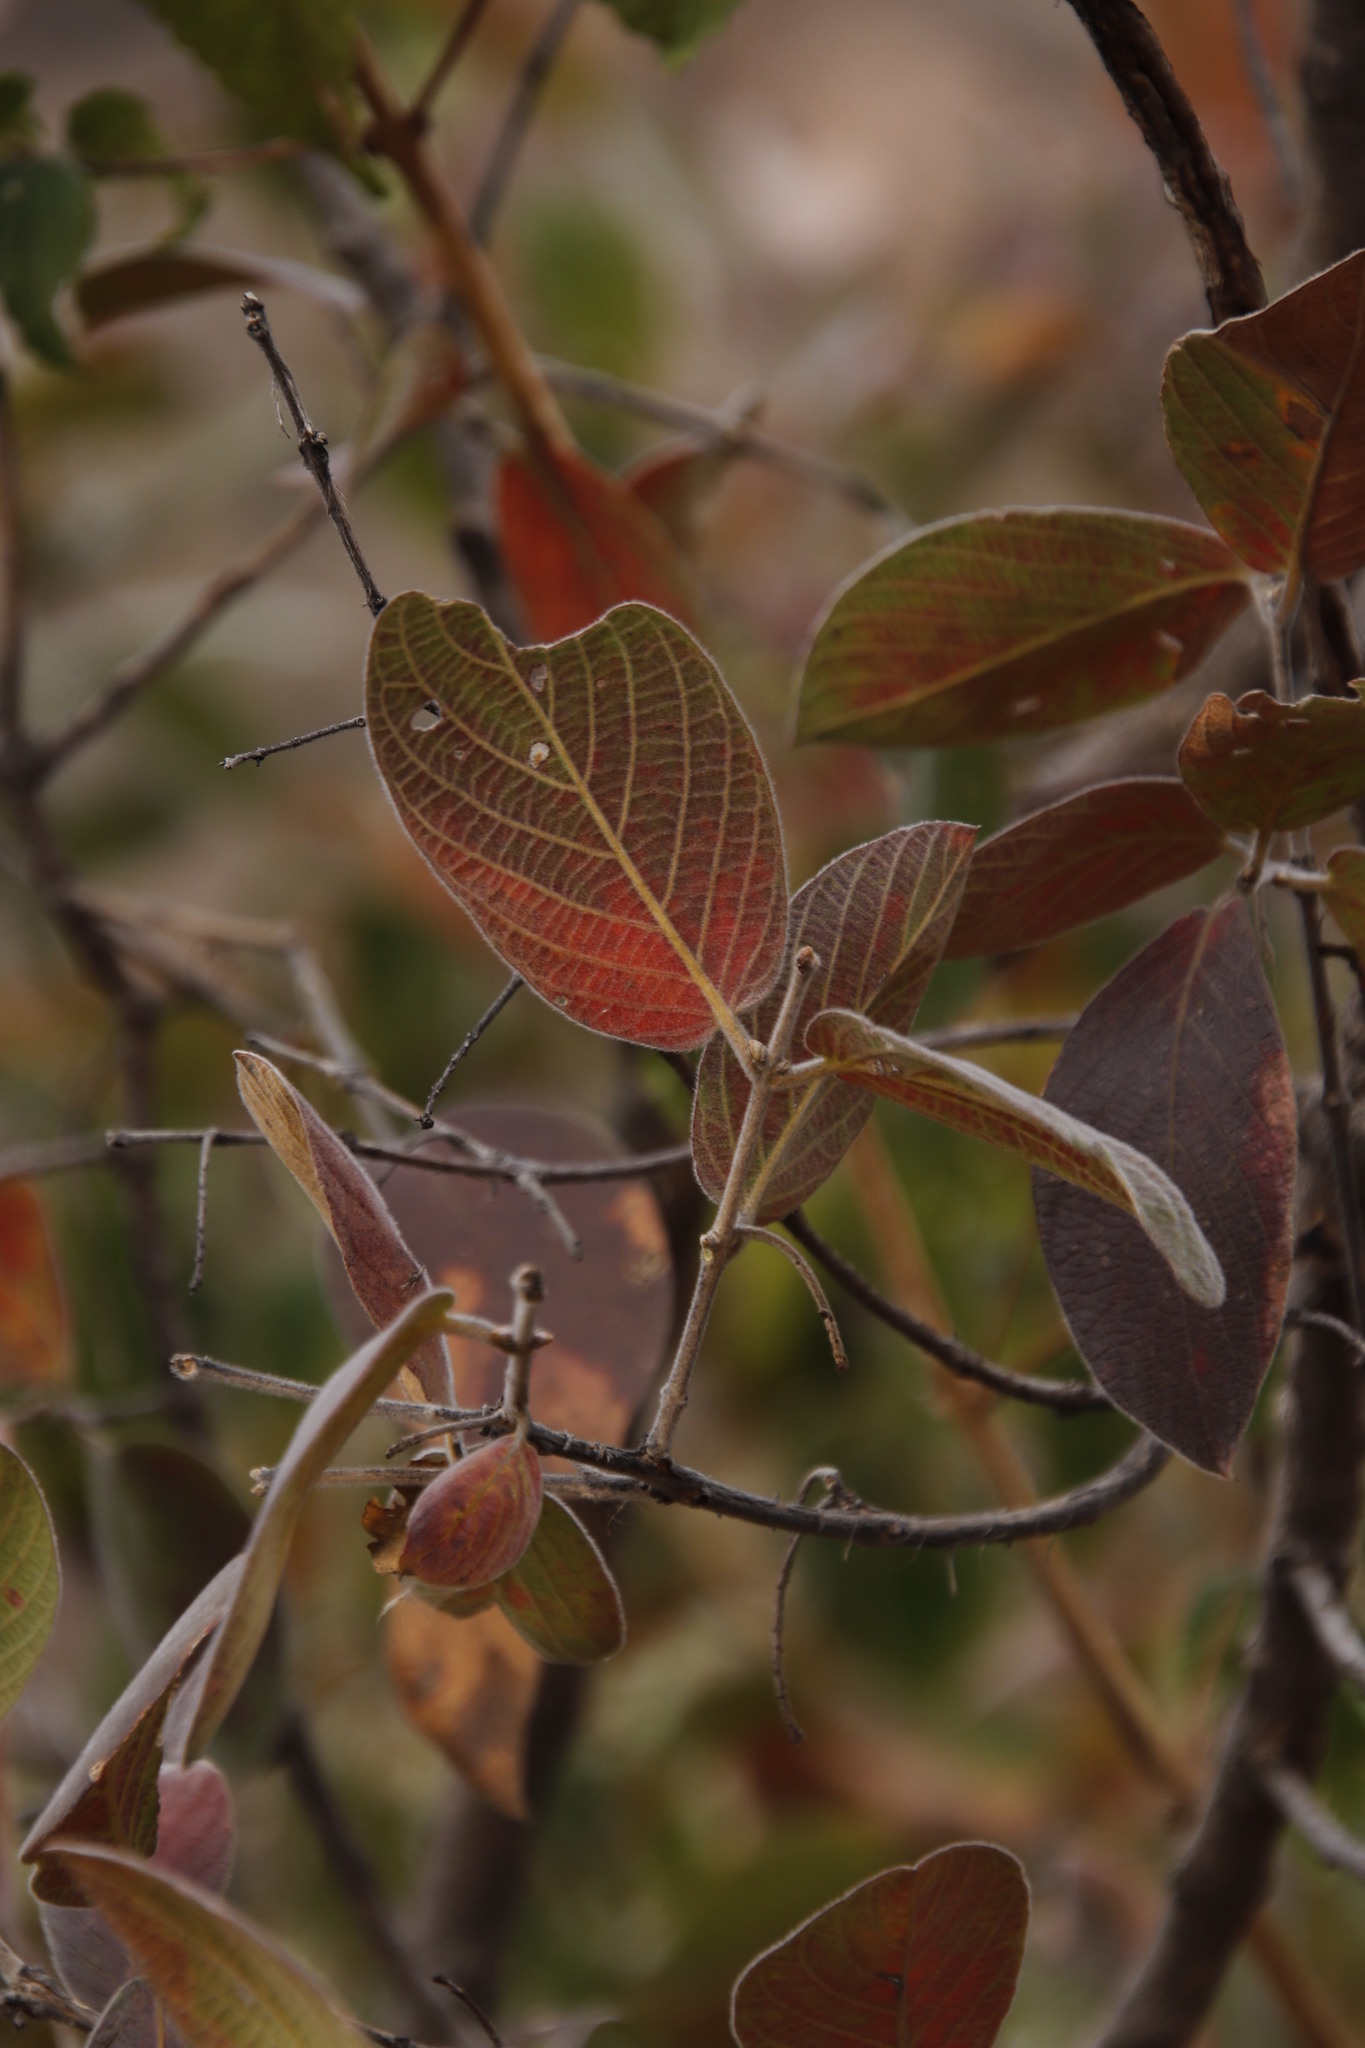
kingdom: Plantae
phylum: Tracheophyta
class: Magnoliopsida
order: Myrtales
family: Combretaceae
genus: Combretum
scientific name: Combretum molle
